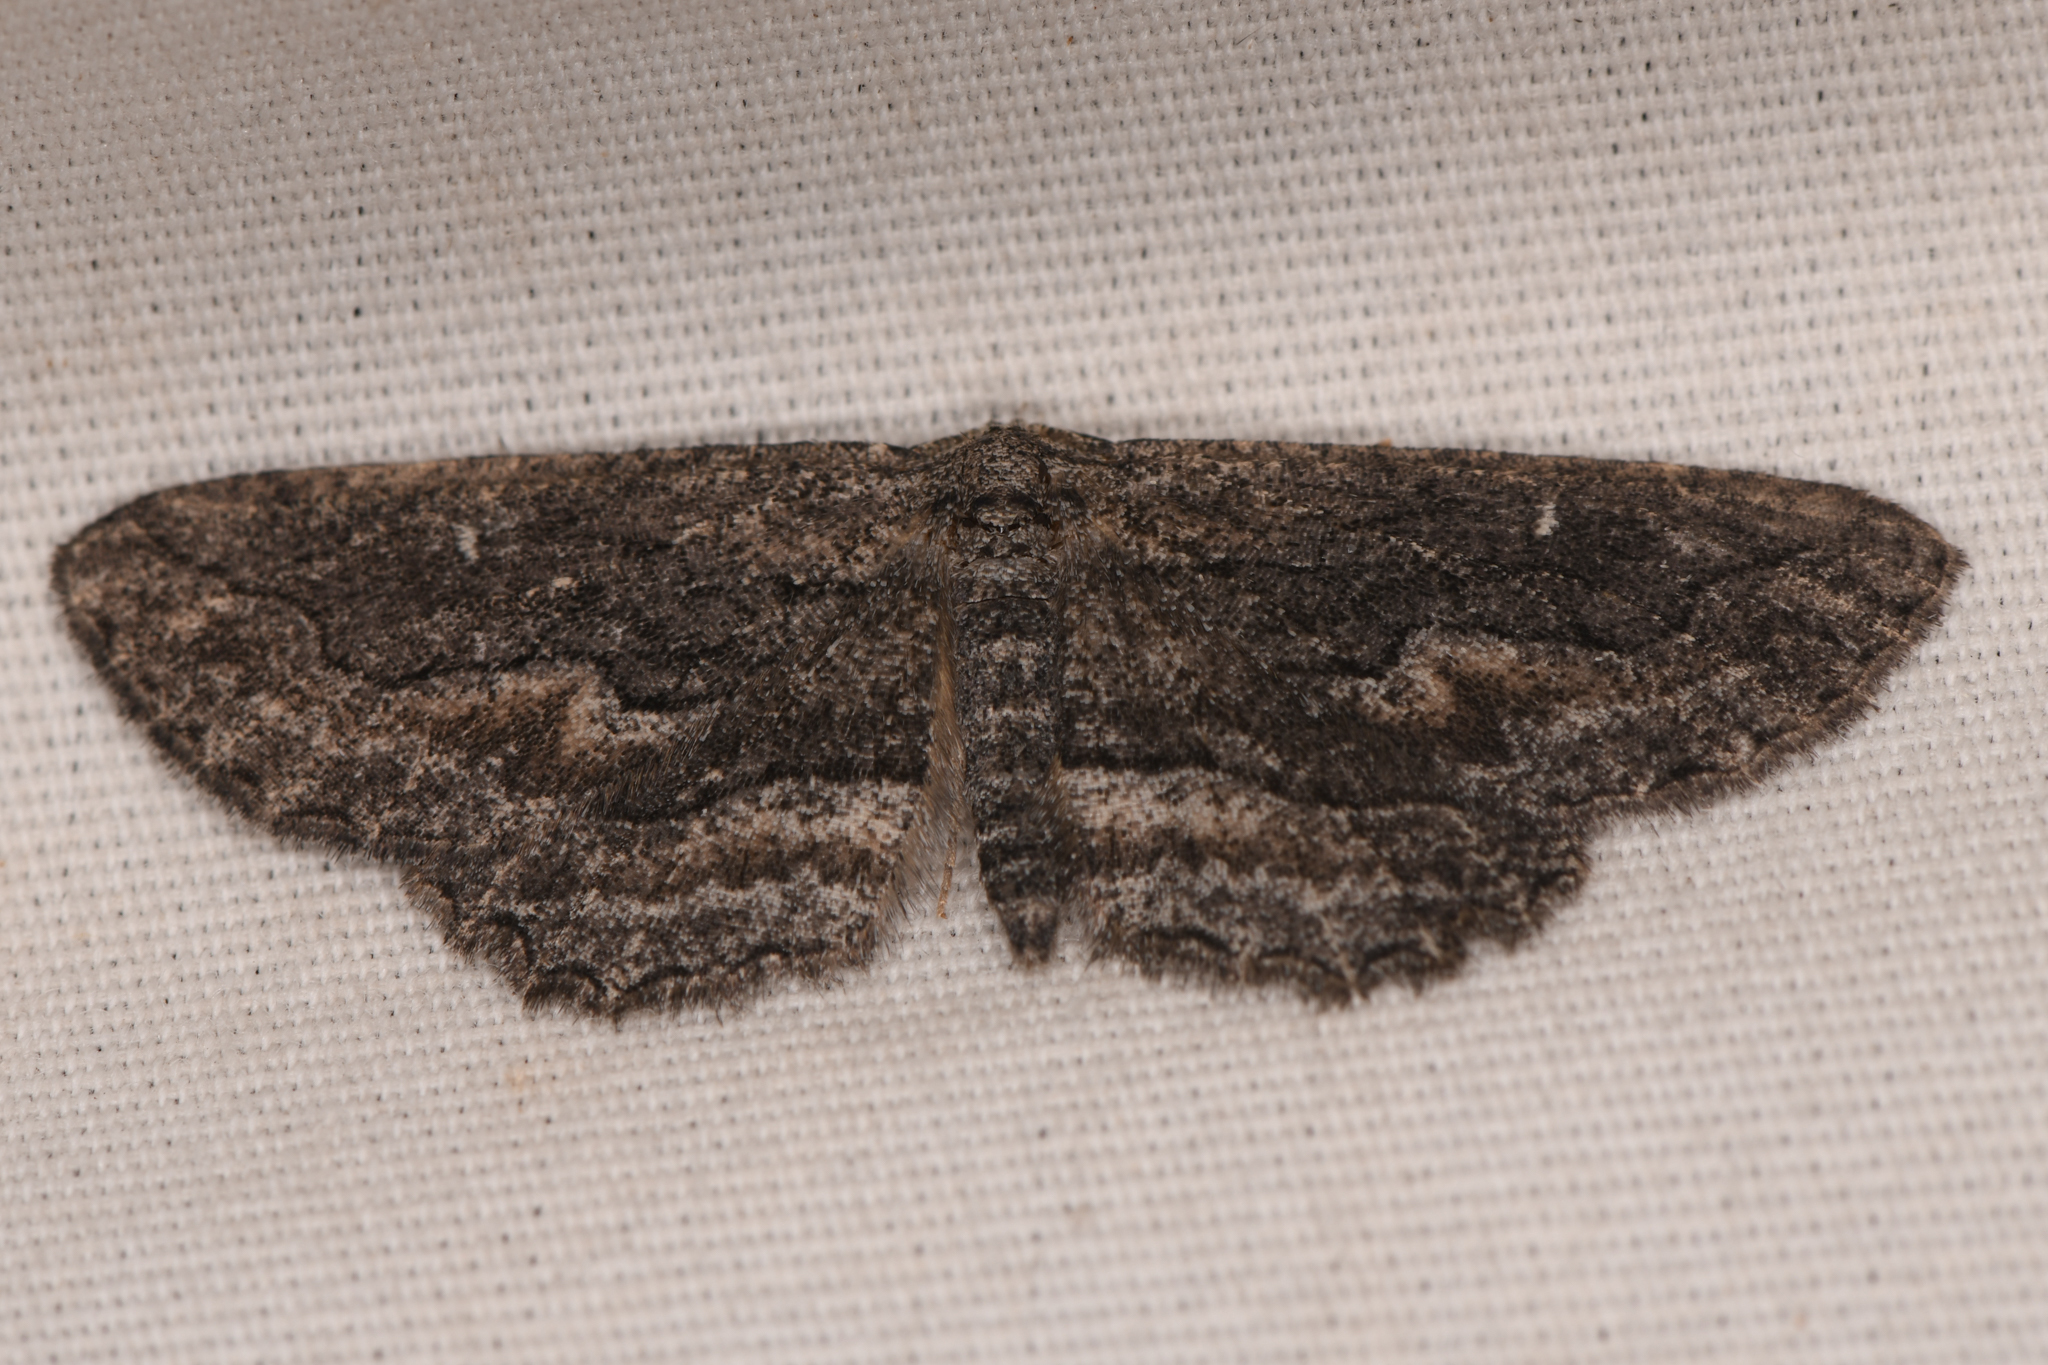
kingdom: Animalia
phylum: Arthropoda
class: Insecta
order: Lepidoptera
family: Geometridae
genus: Aethaloida
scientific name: Aethaloida packardaria
